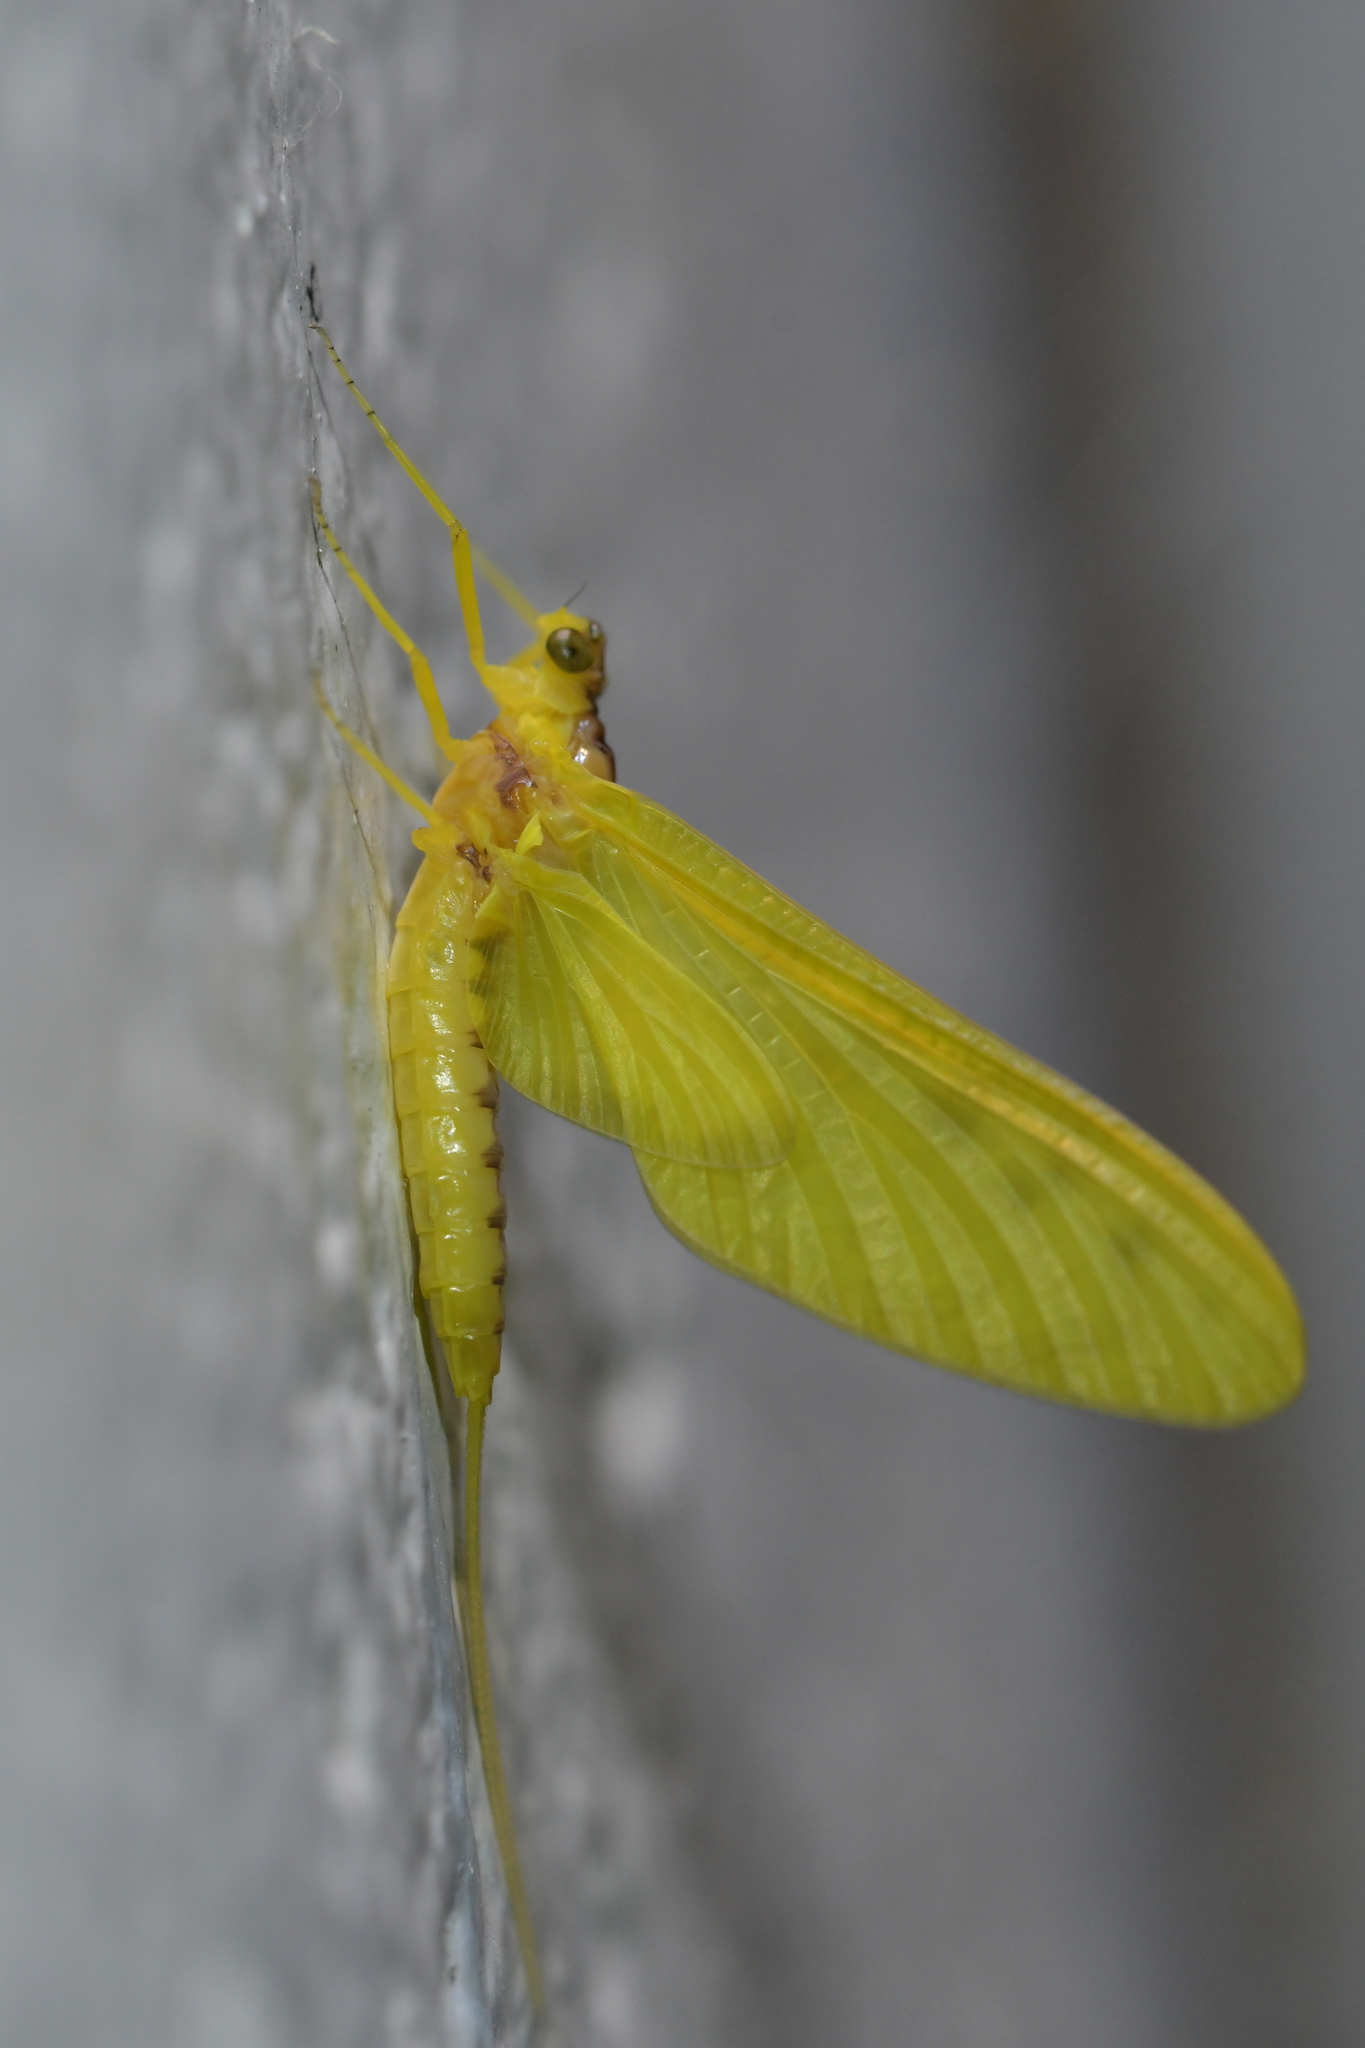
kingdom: Animalia
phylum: Arthropoda
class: Insecta
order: Ephemeroptera
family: Ameletopsidae
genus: Ameletopsis
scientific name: Ameletopsis perscitus
